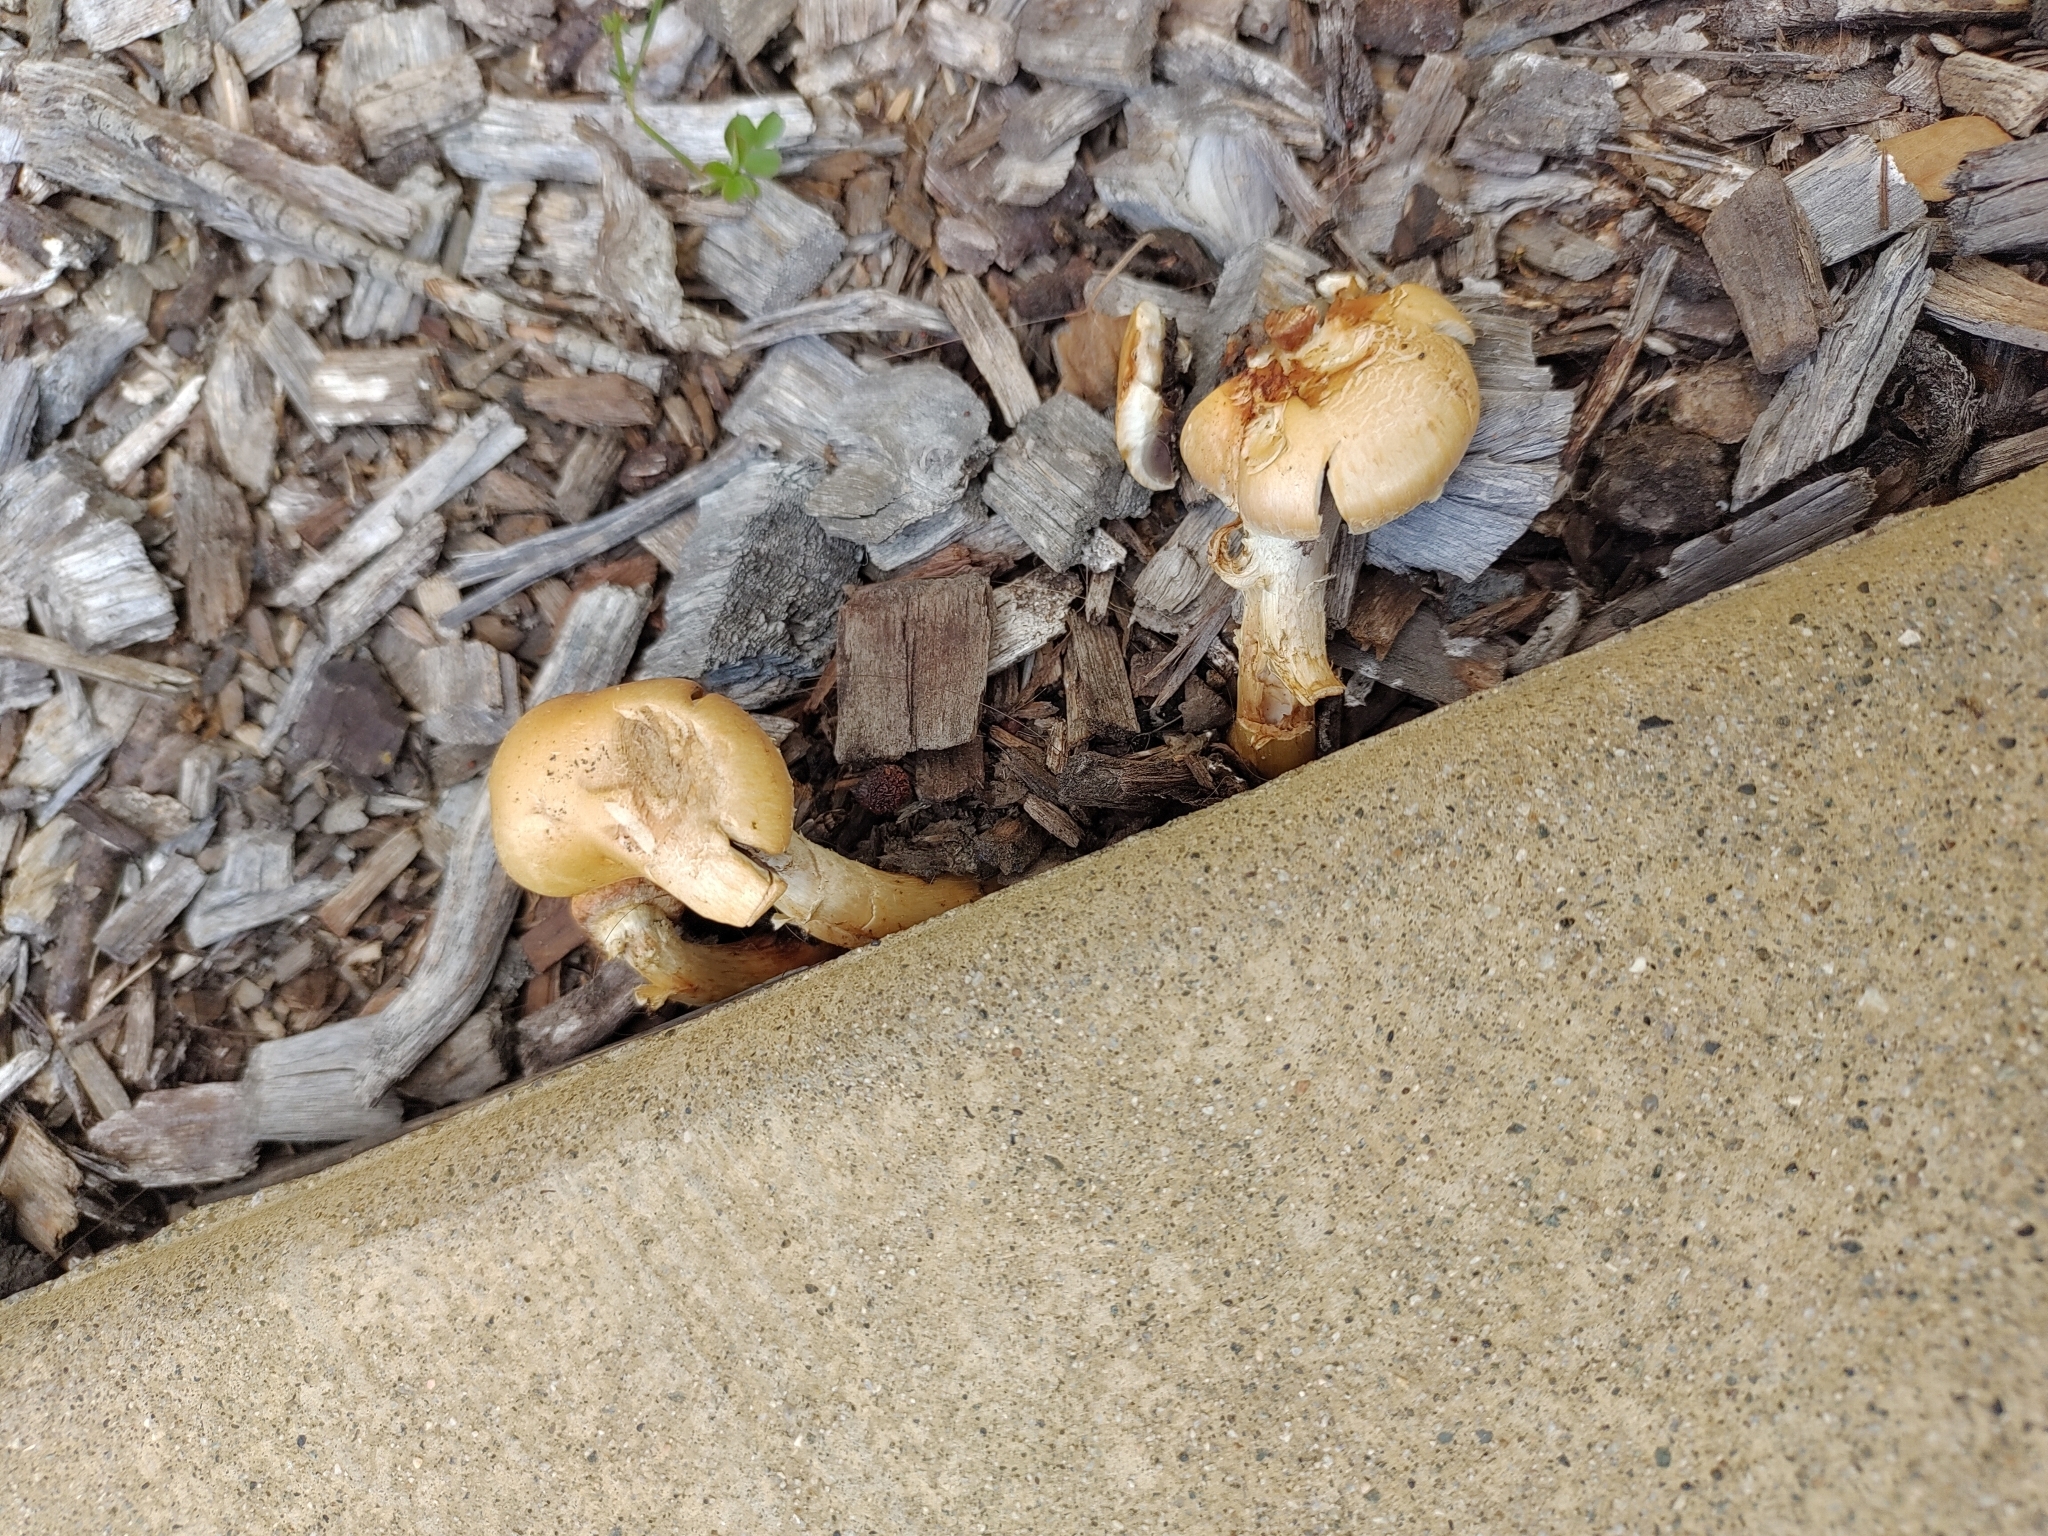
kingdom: Fungi
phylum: Basidiomycota
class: Agaricomycetes
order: Agaricales
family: Strophariaceae
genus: Leratiomyces
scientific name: Leratiomyces percevalii
